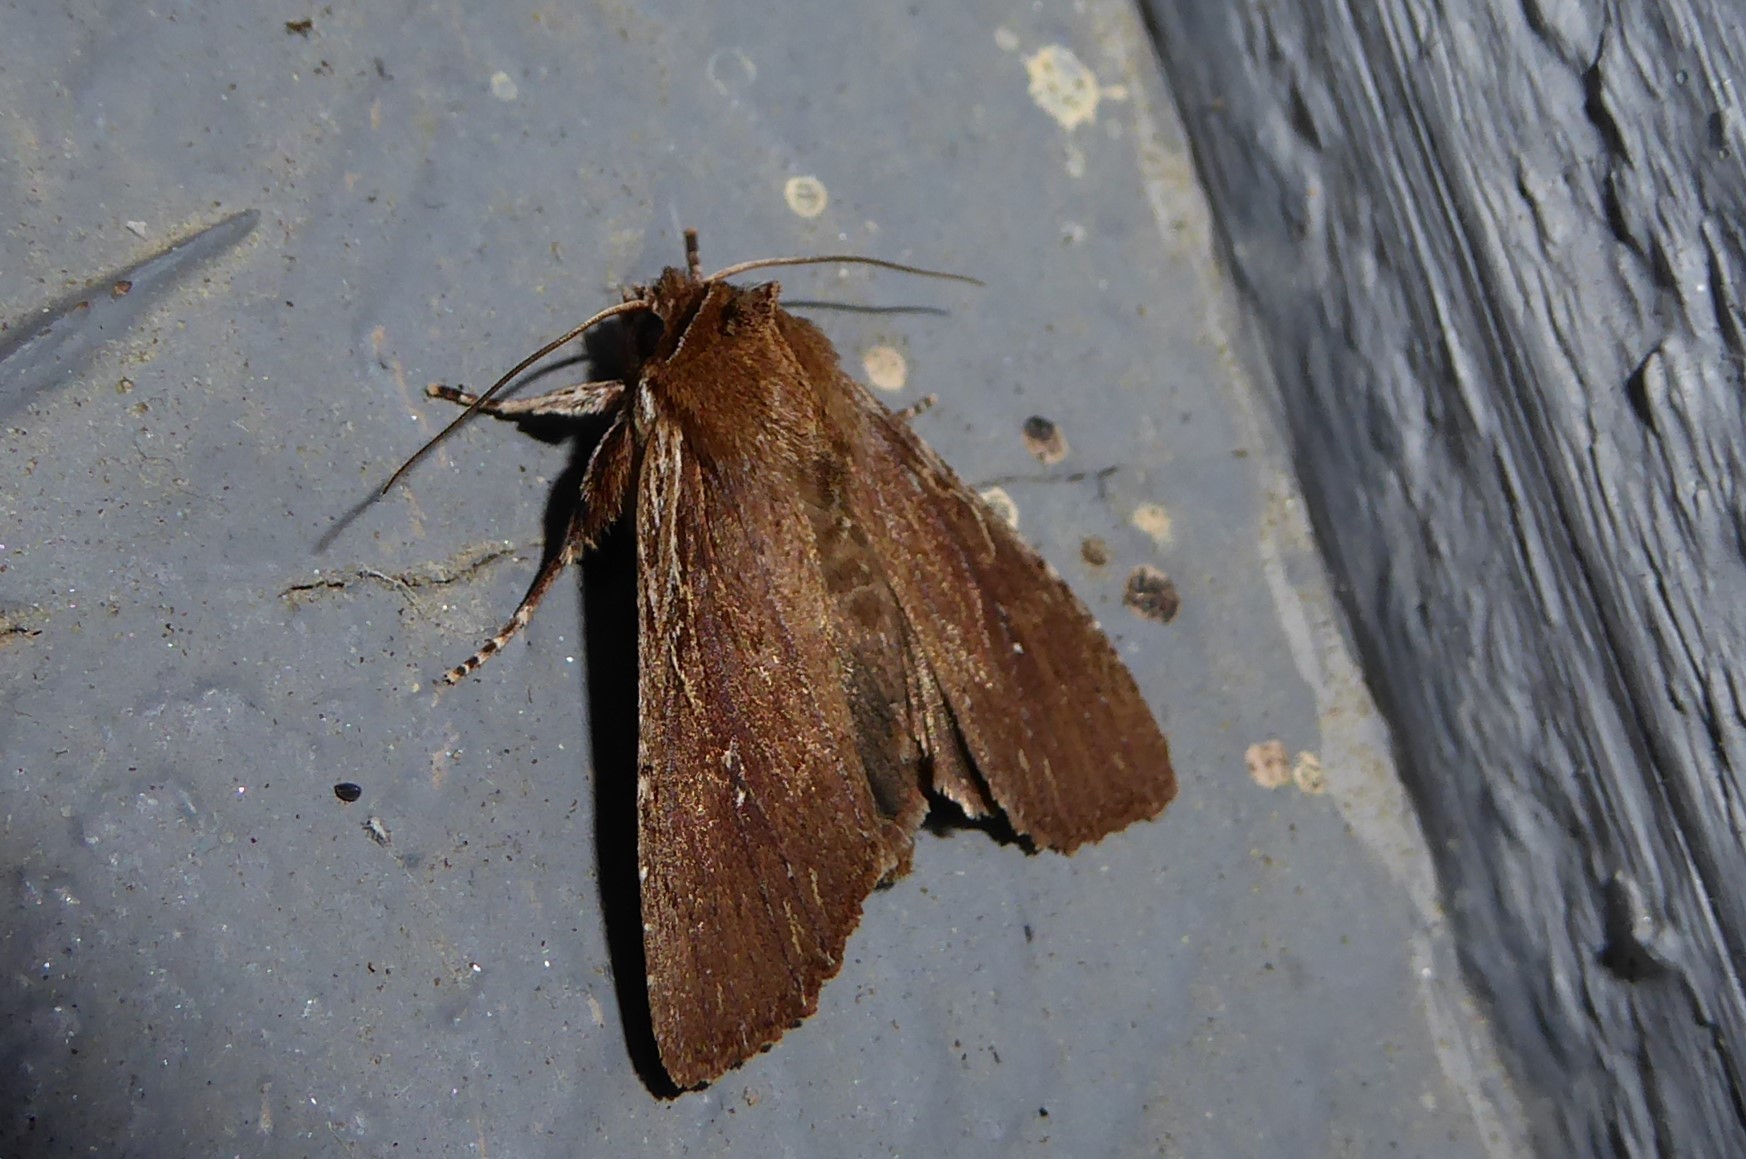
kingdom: Animalia
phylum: Arthropoda
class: Insecta
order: Lepidoptera
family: Noctuidae
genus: Ichneutica
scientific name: Ichneutica
